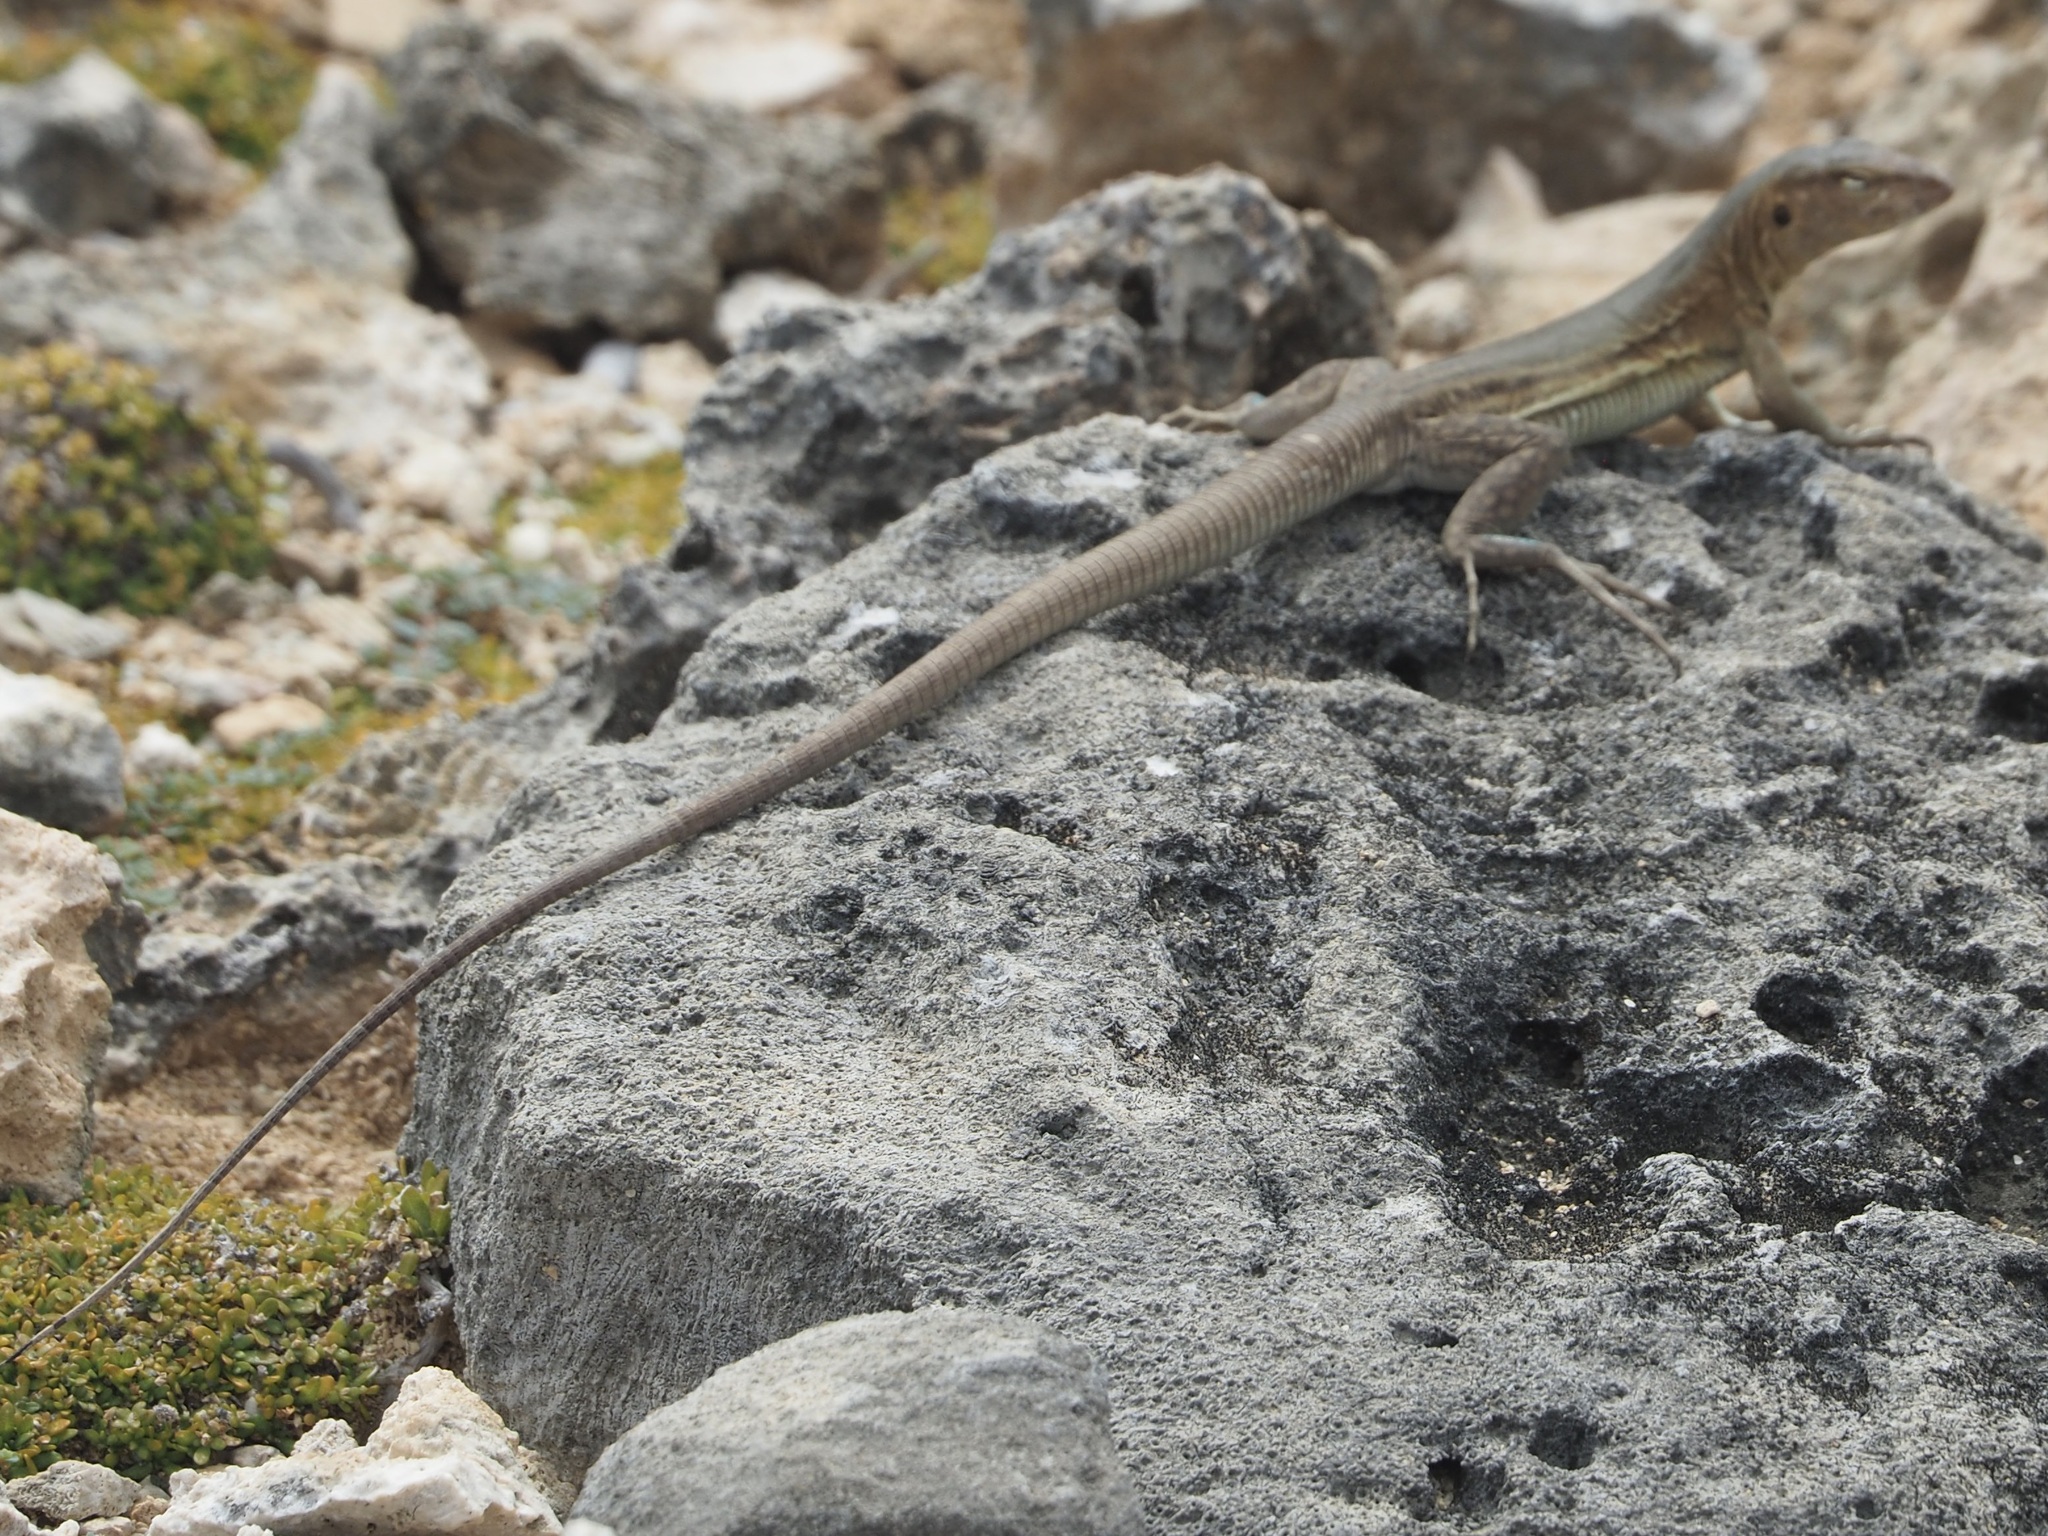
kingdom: Animalia
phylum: Chordata
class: Squamata
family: Teiidae
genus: Cnemidophorus
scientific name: Cnemidophorus ruthveni
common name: Bonaire whiptail
